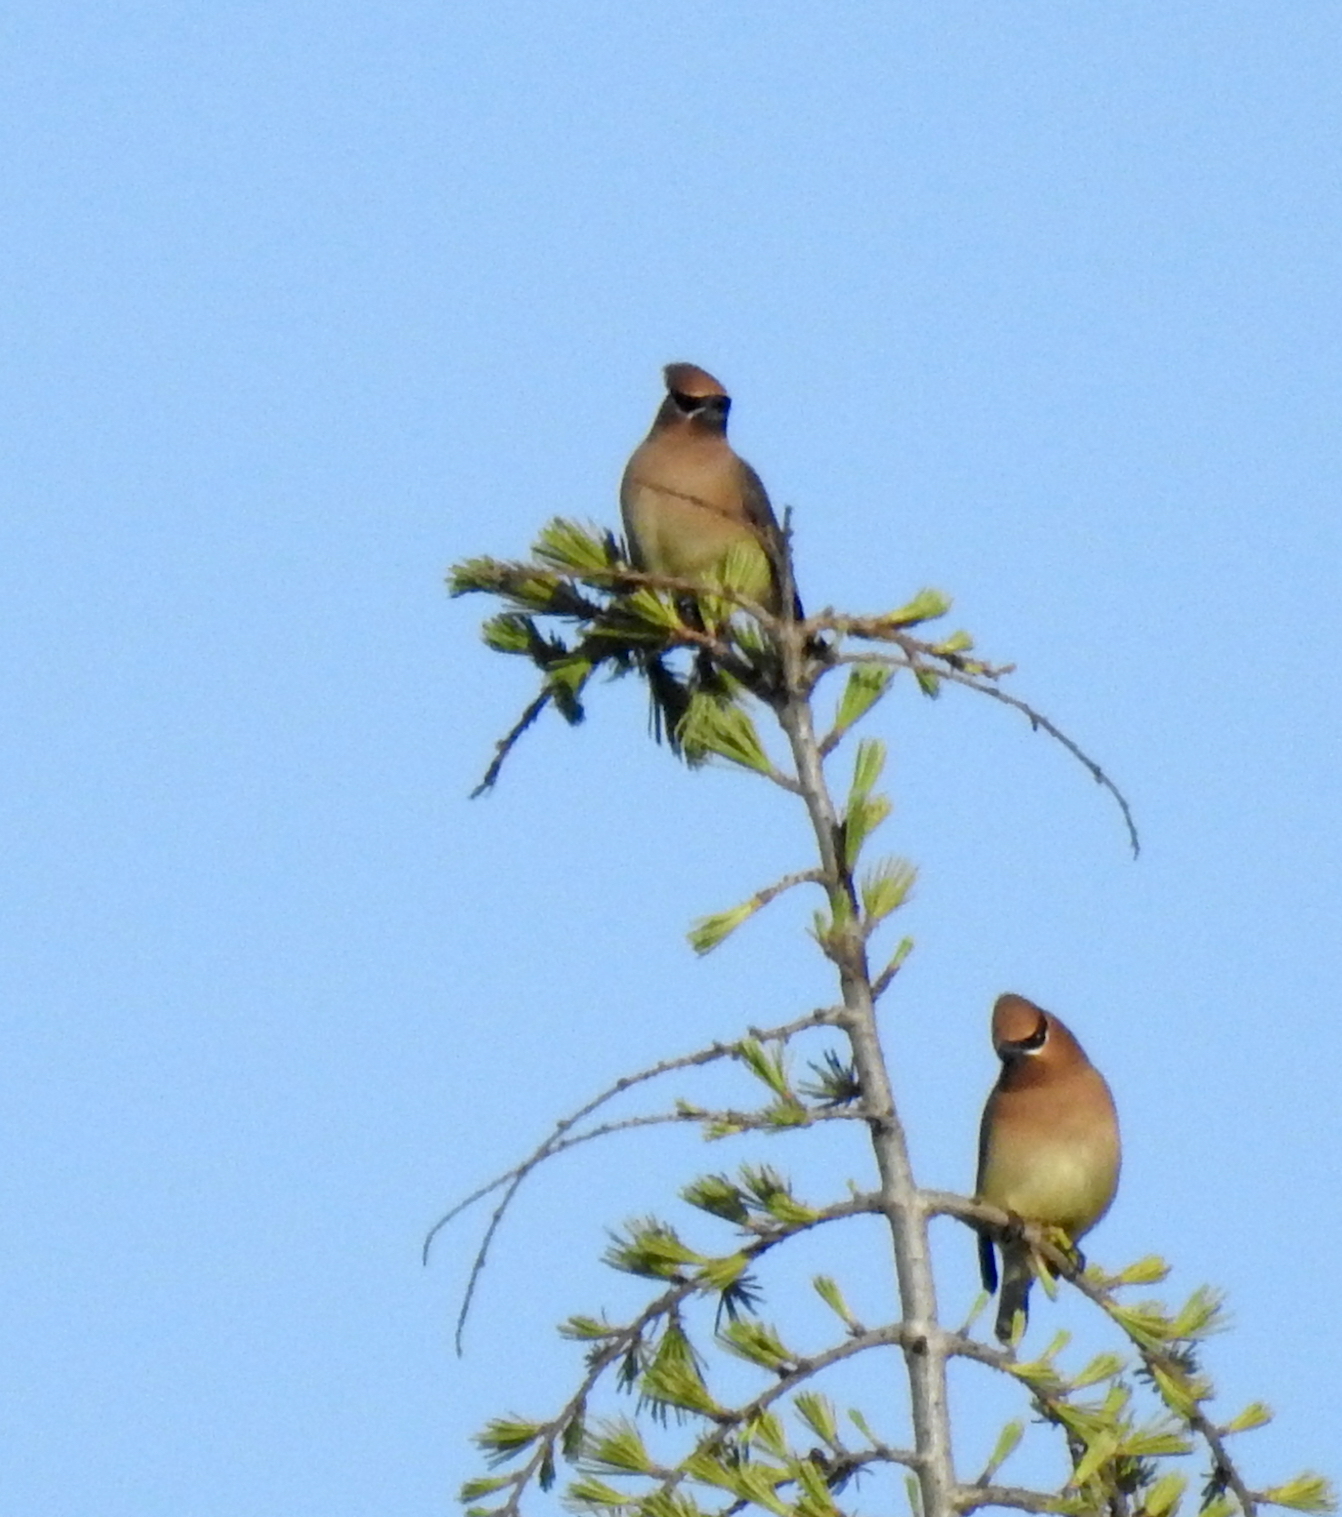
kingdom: Animalia
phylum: Chordata
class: Aves
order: Passeriformes
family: Bombycillidae
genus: Bombycilla
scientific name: Bombycilla cedrorum
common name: Cedar waxwing
